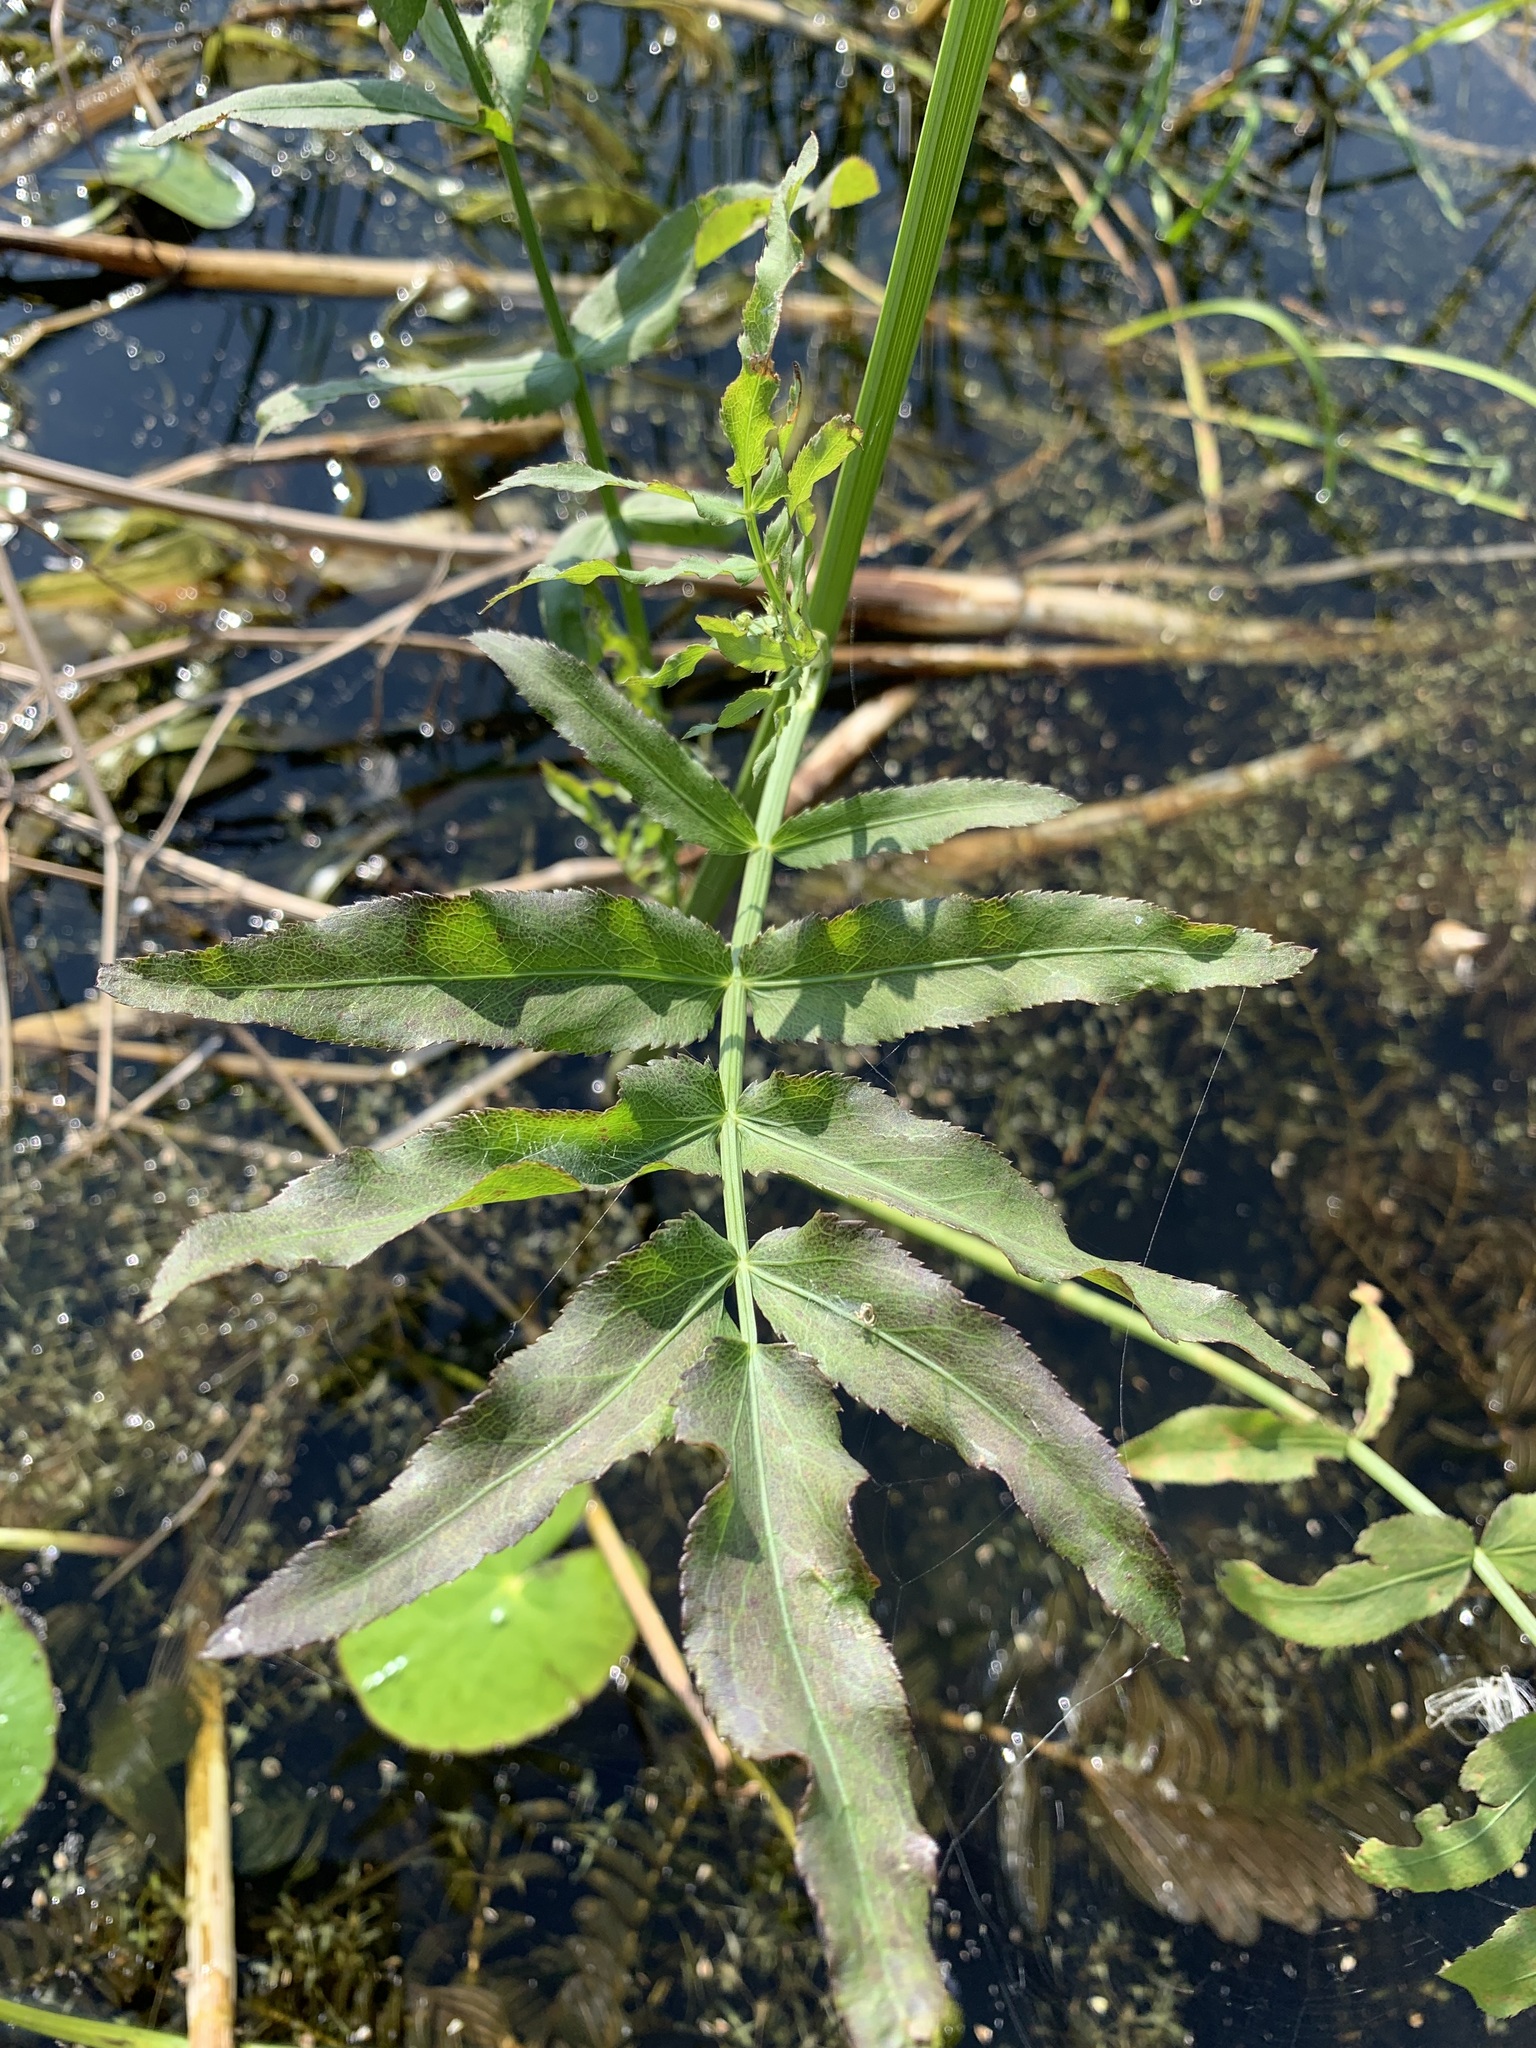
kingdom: Plantae
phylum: Tracheophyta
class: Magnoliopsida
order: Apiales
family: Apiaceae
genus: Sium
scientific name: Sium latifolium
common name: Greater water-parsnip
